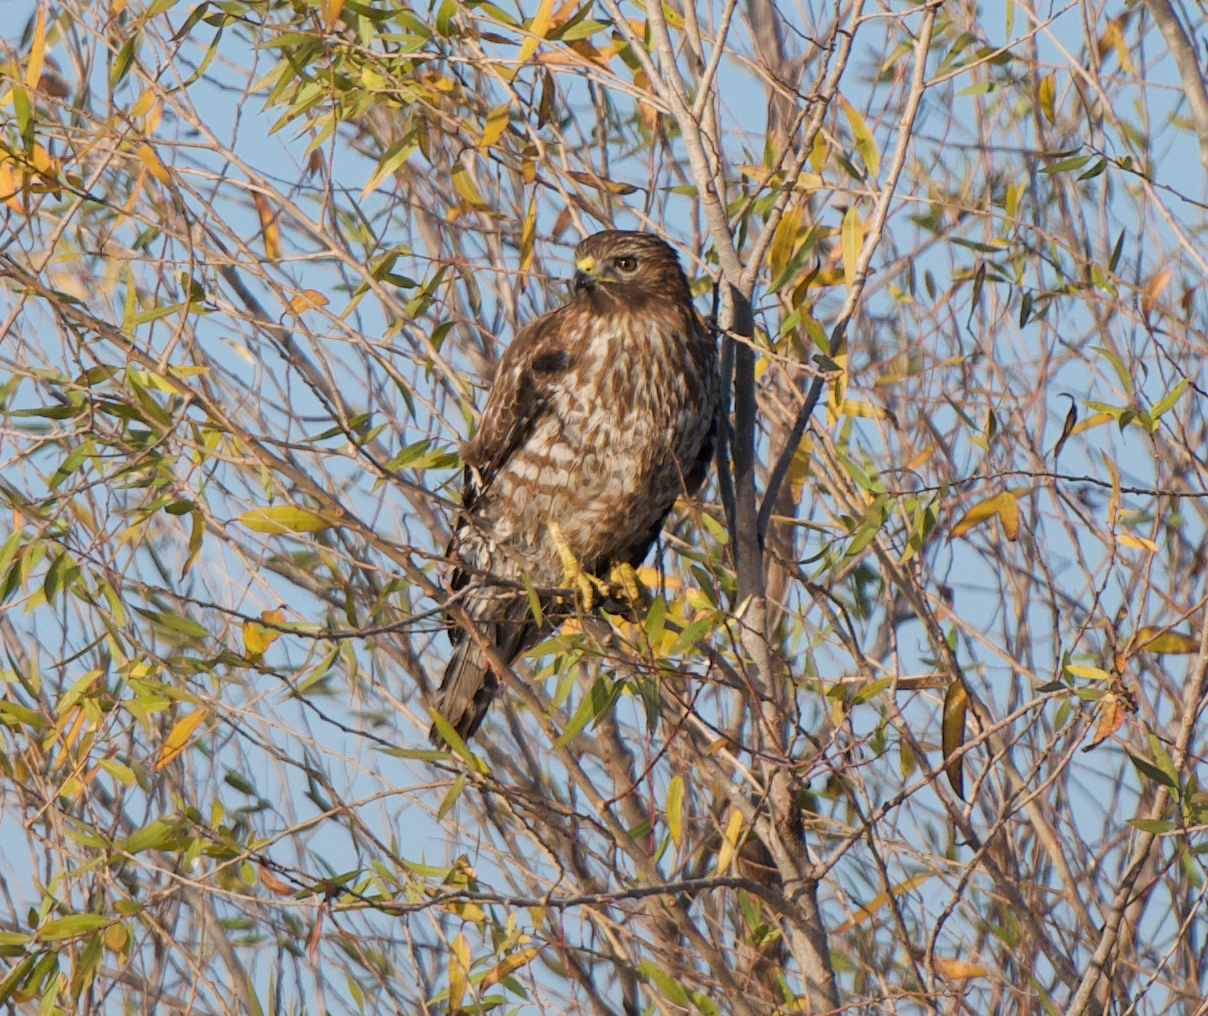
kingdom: Animalia
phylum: Chordata
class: Aves
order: Accipitriformes
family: Accipitridae
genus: Buteo
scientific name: Buteo lineatus
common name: Red-shouldered hawk
